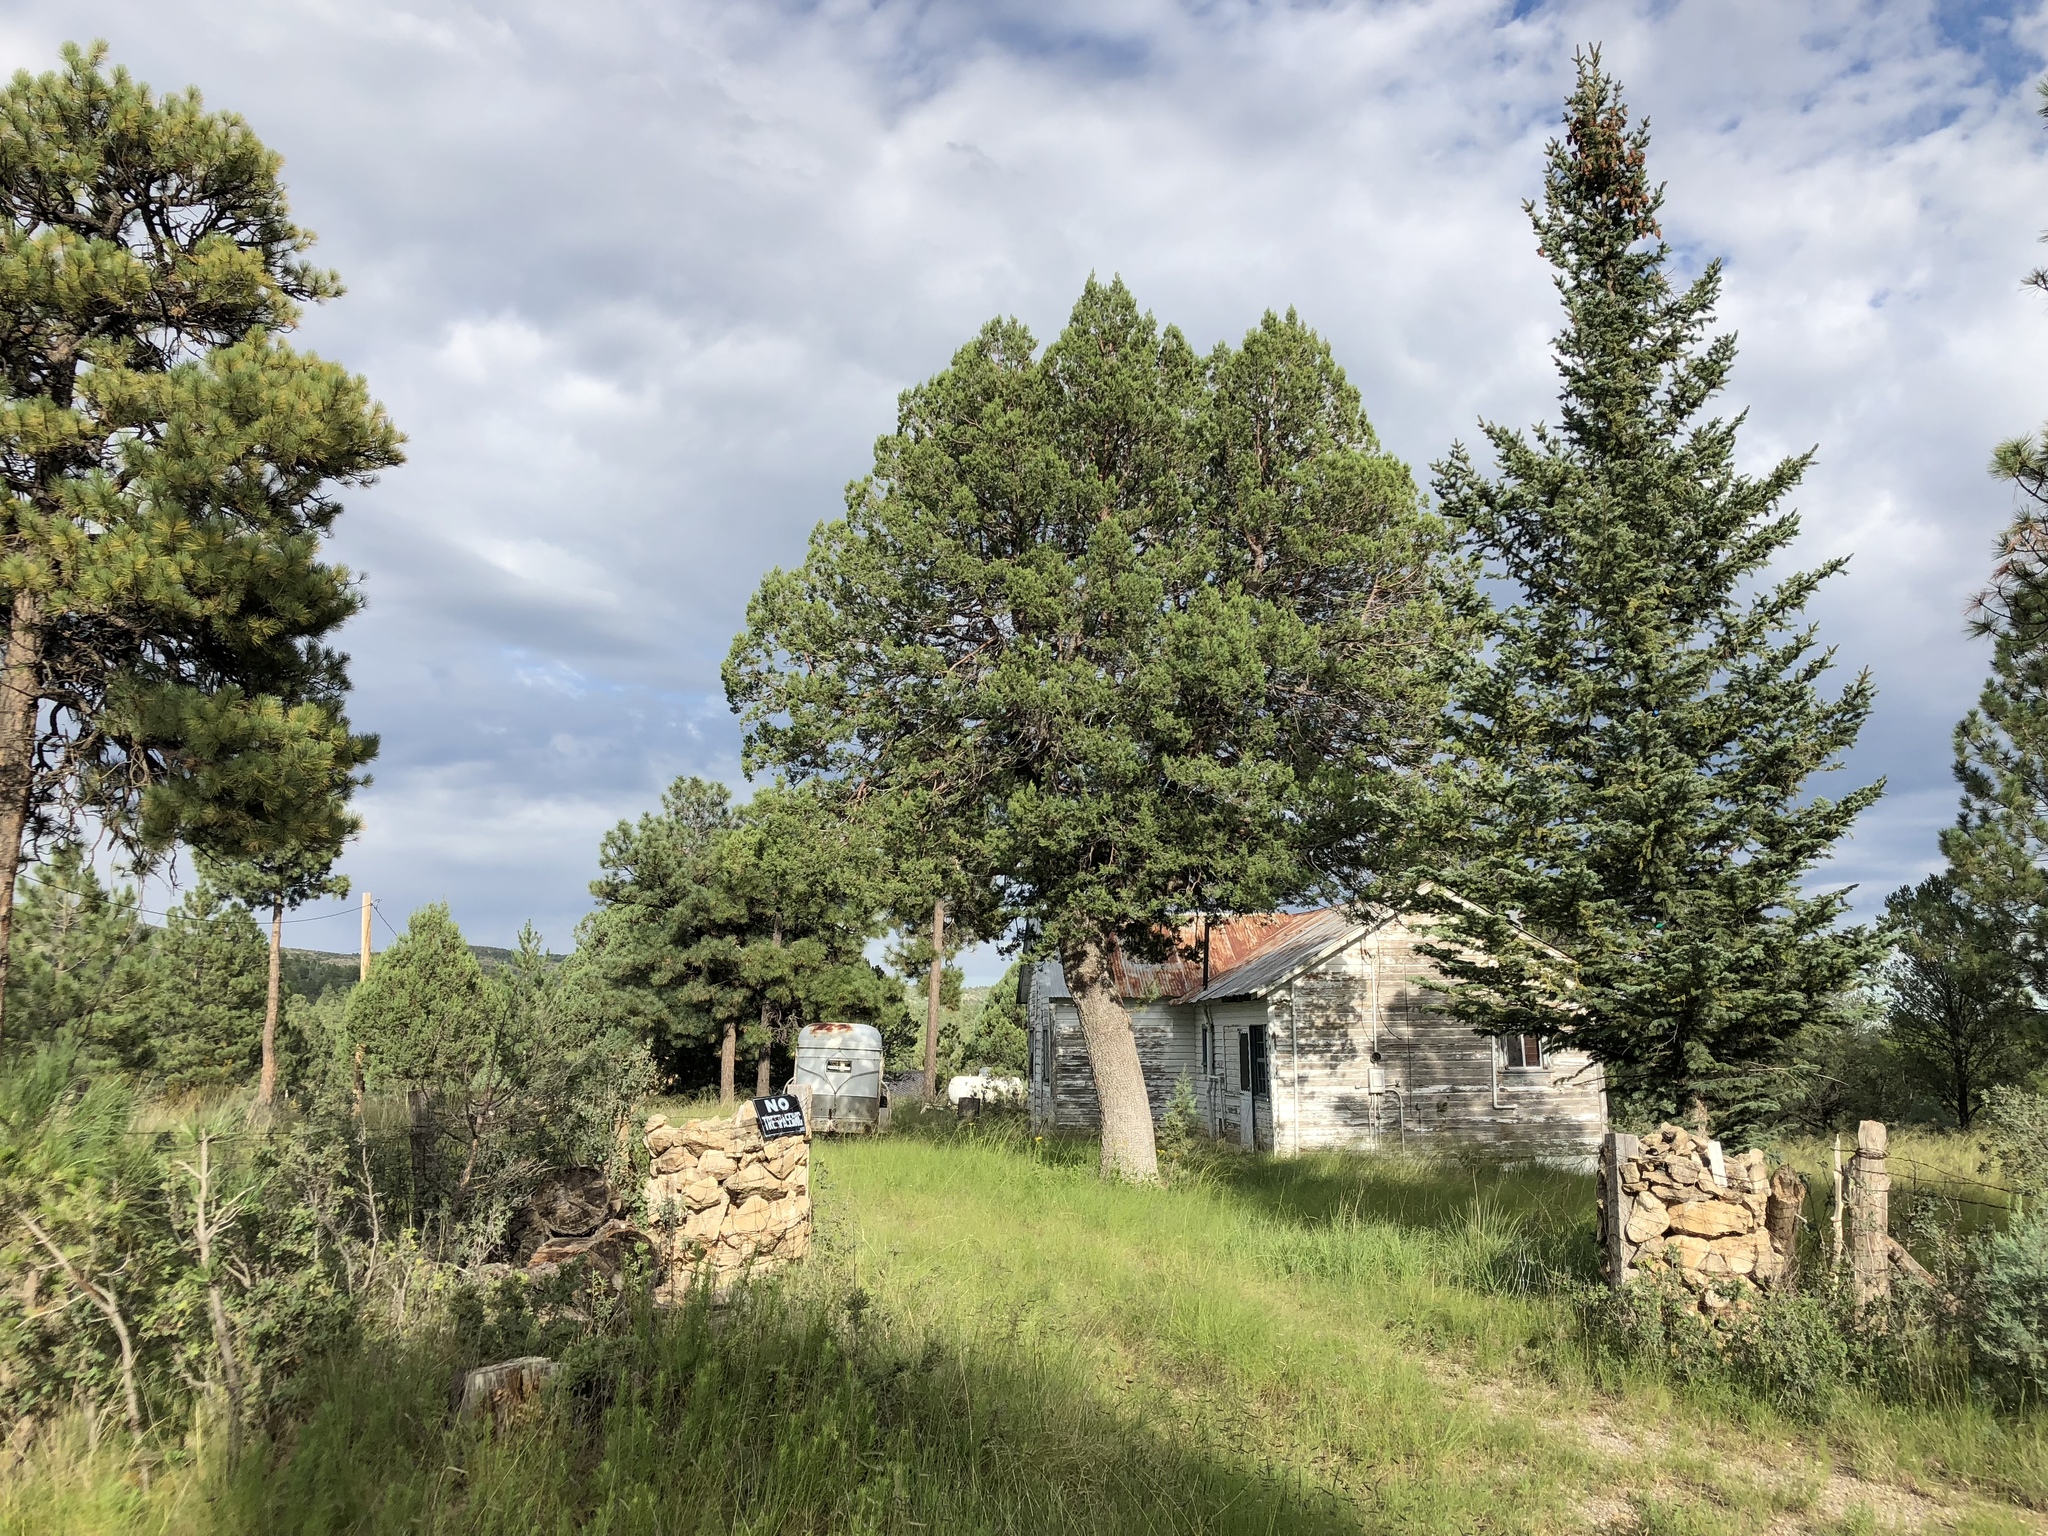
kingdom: Plantae
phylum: Tracheophyta
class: Pinopsida
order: Pinales
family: Cupressaceae
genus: Juniperus
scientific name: Juniperus deppeana
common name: Alligator juniper
